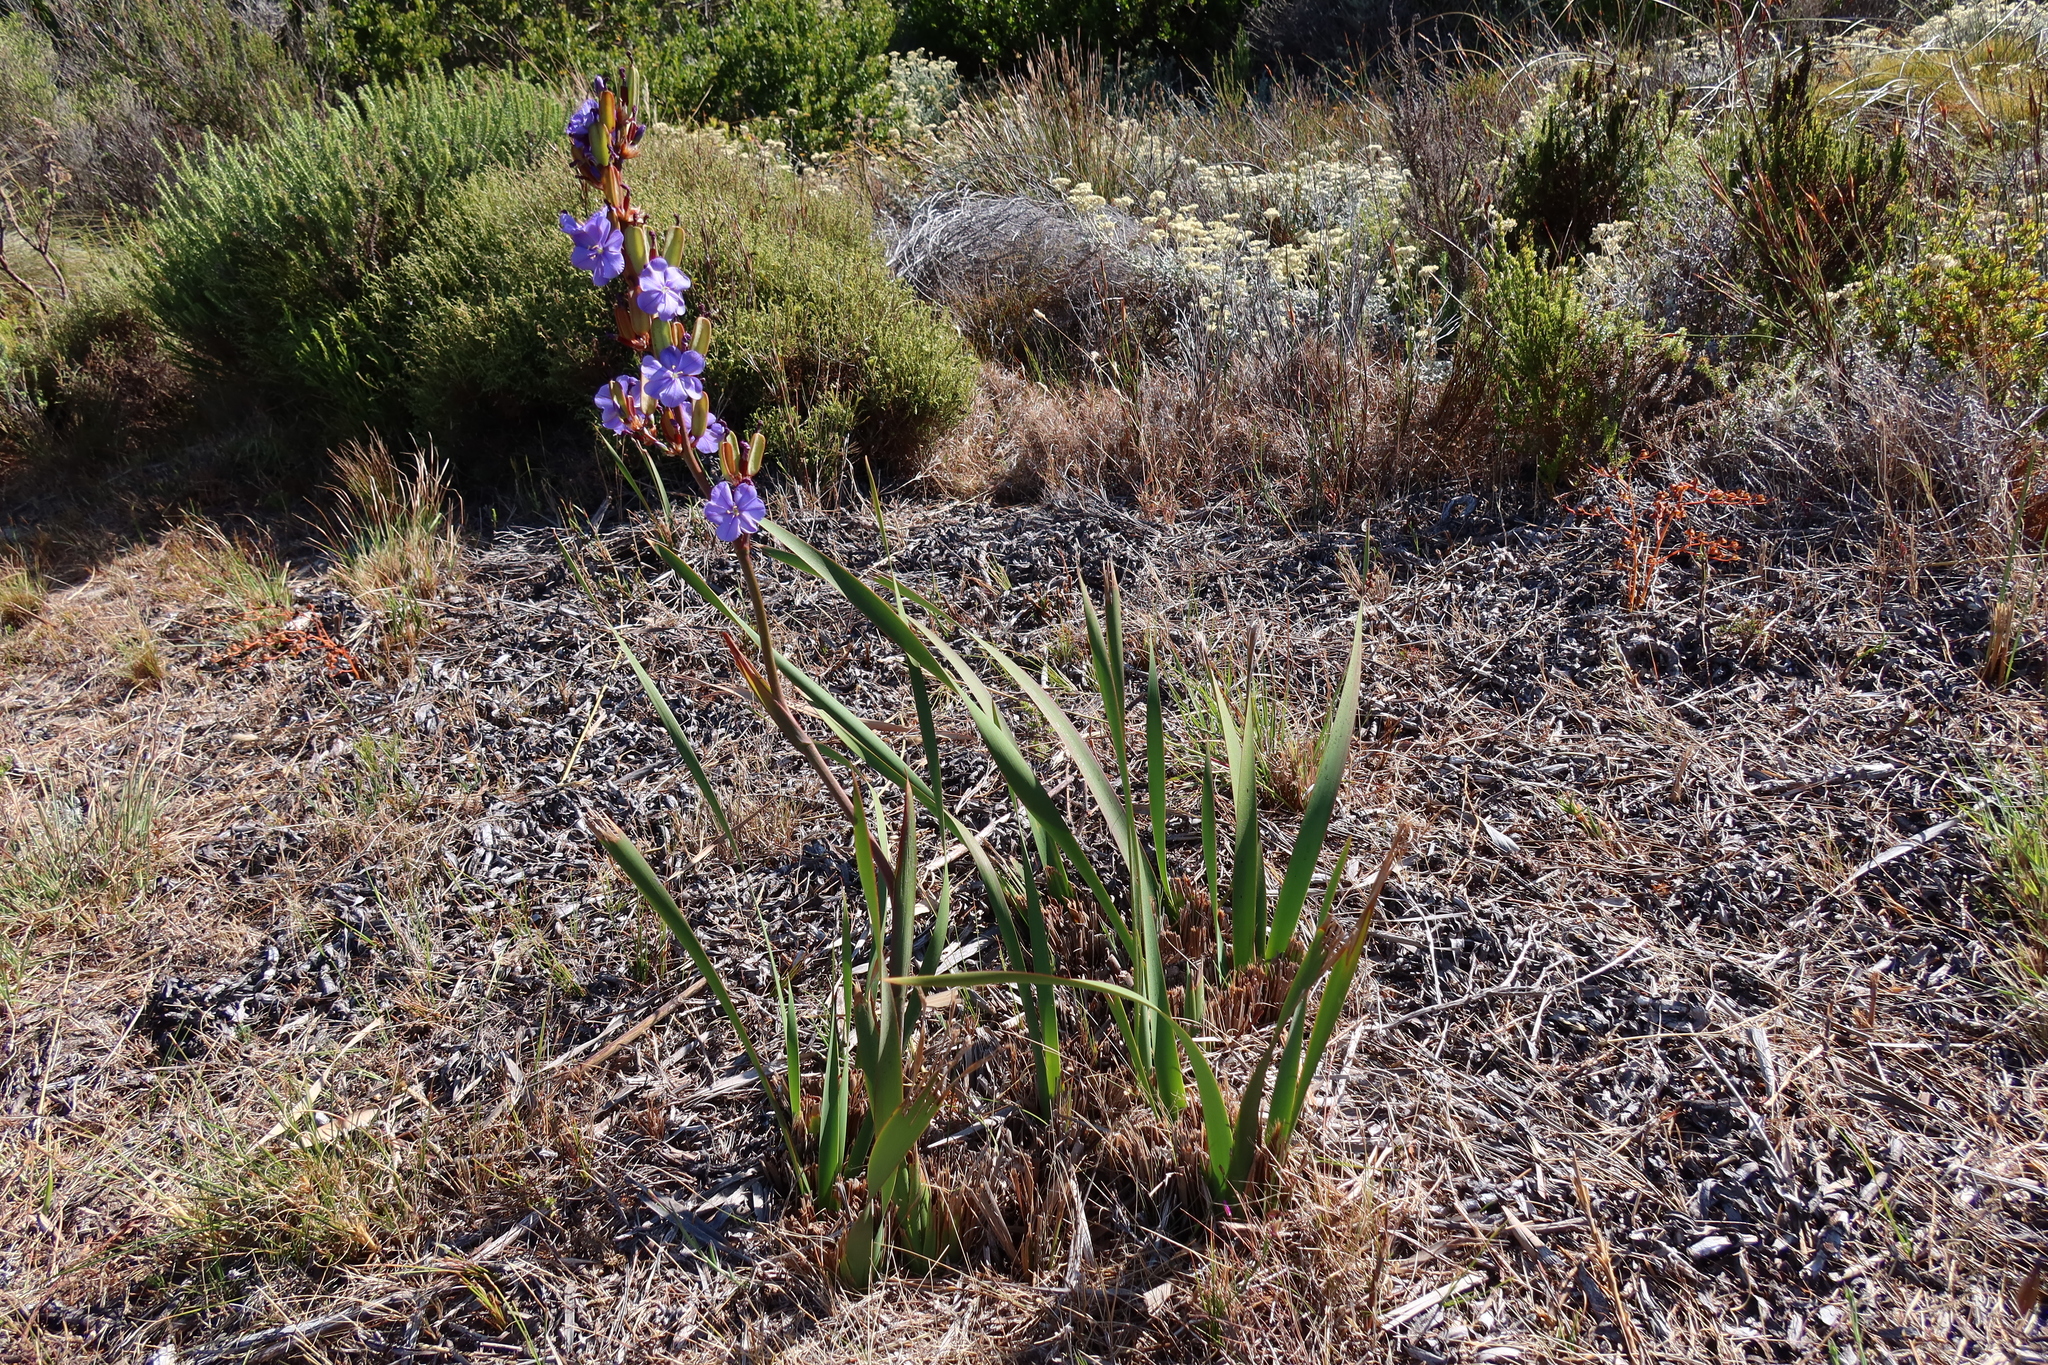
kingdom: Plantae
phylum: Tracheophyta
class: Liliopsida
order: Asparagales
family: Iridaceae
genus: Aristea
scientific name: Aristea bakeri
